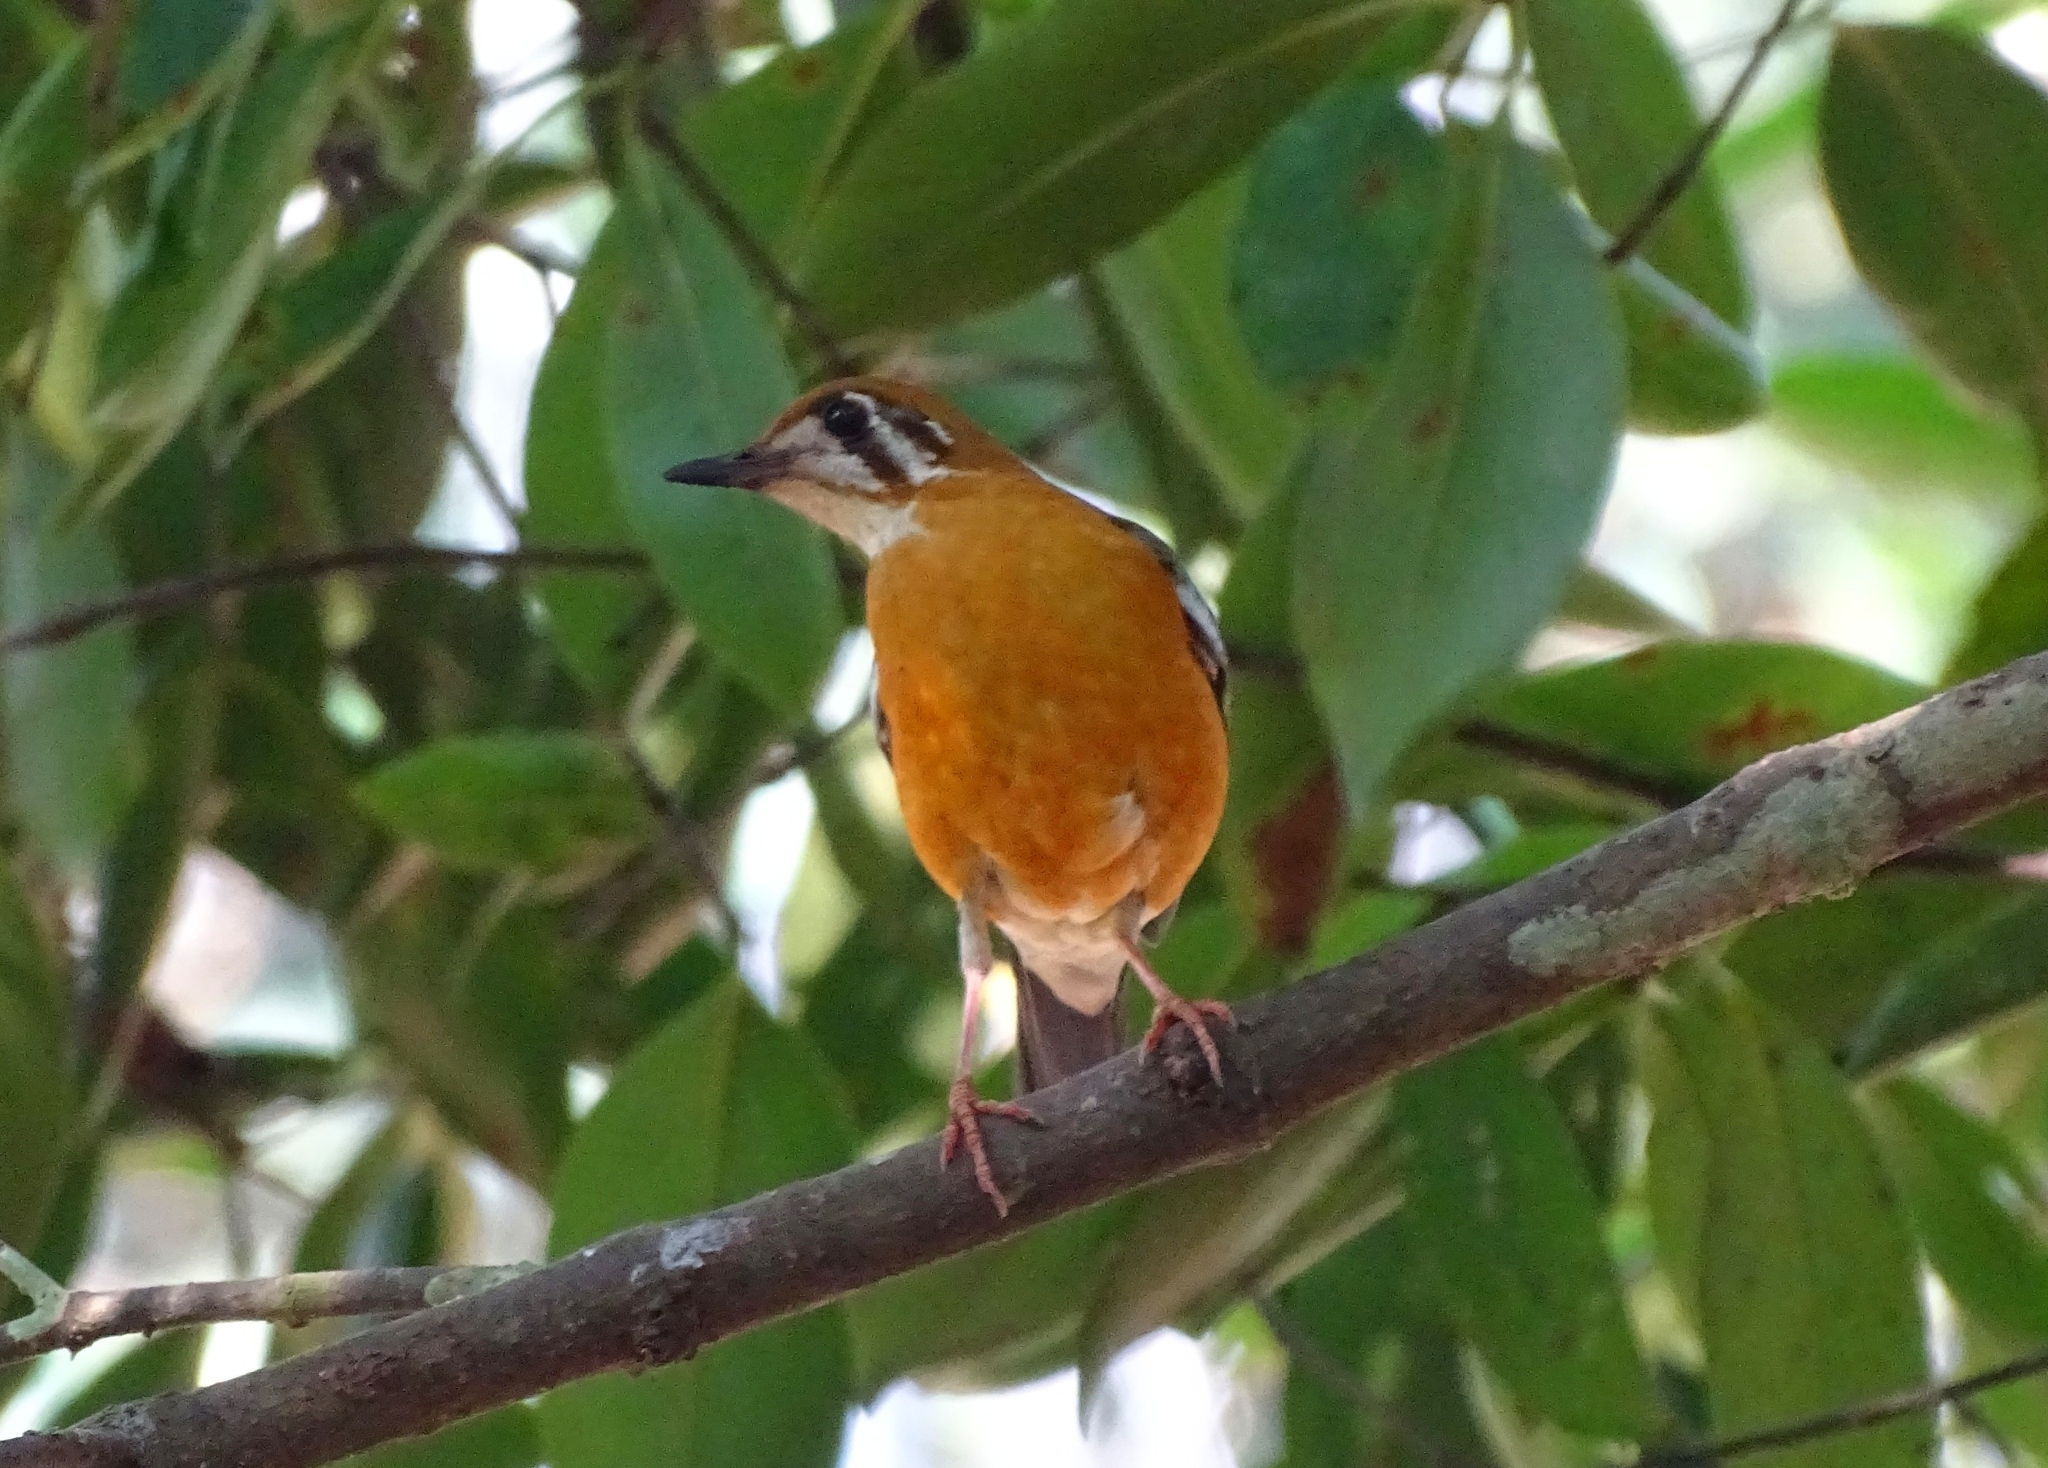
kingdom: Animalia
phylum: Chordata
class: Aves
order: Passeriformes
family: Turdidae
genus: Geokichla
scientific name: Geokichla citrina
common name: Orange-headed thrush
